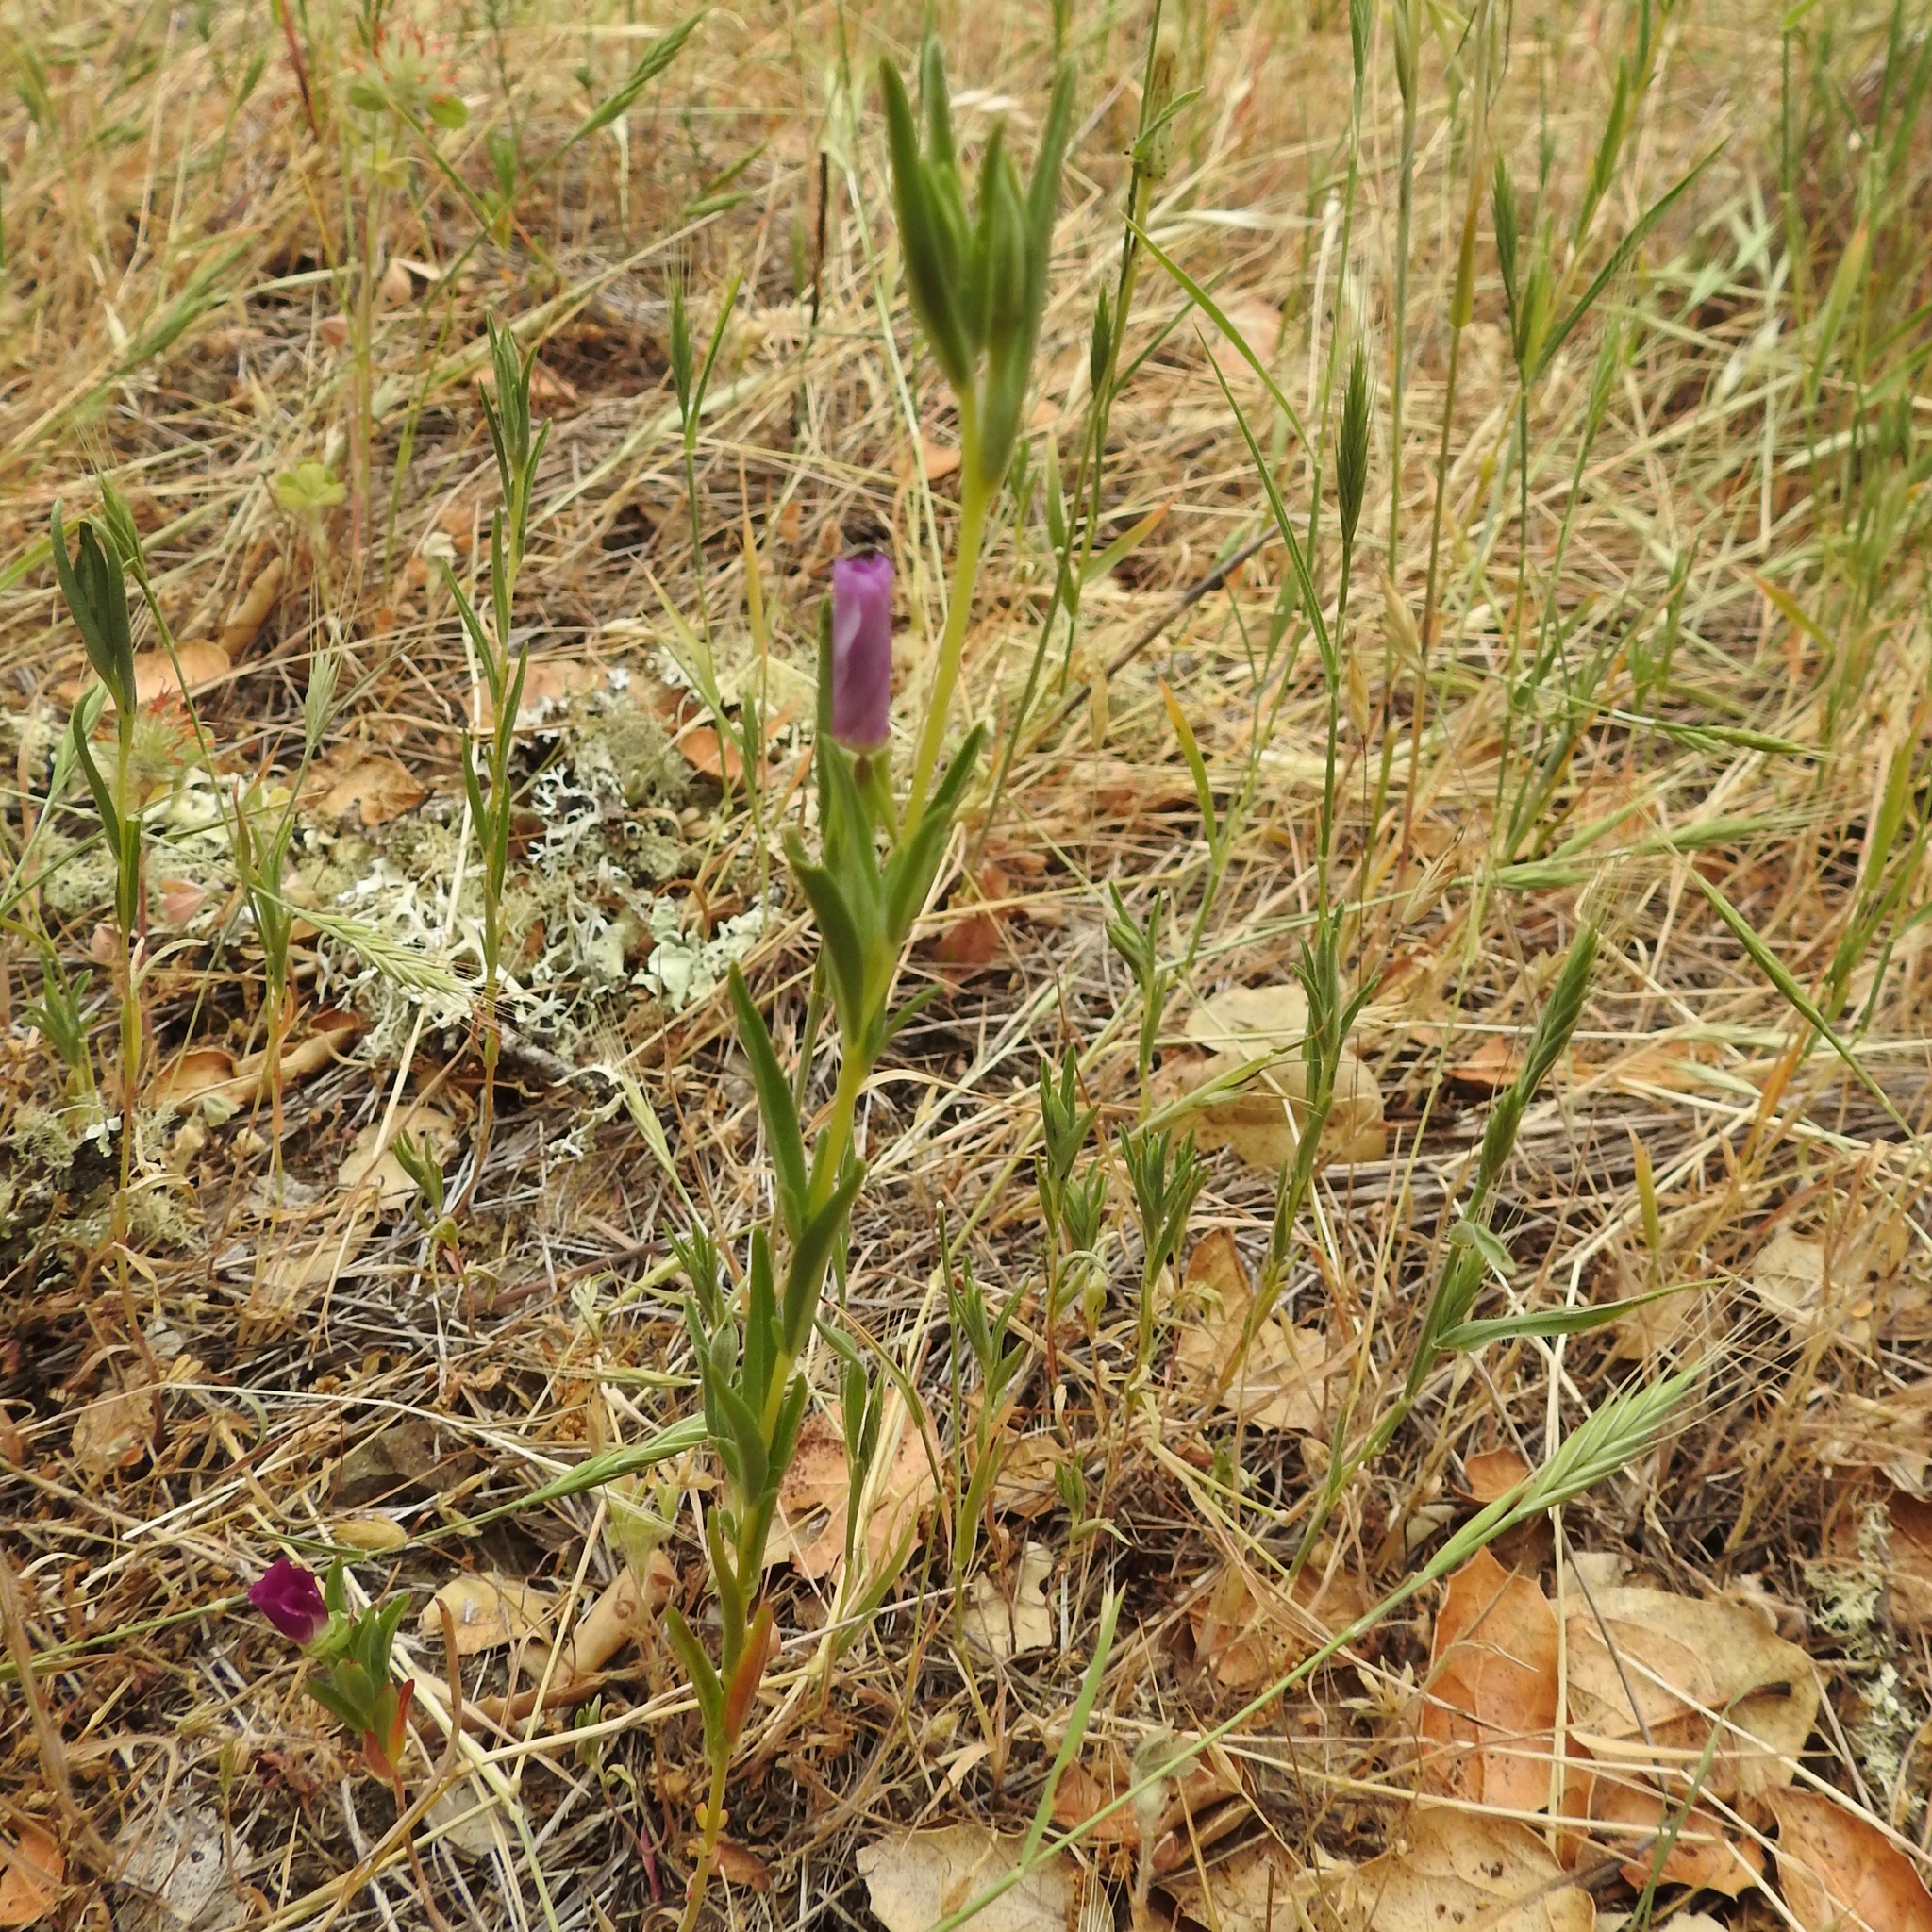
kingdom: Plantae
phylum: Tracheophyta
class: Magnoliopsida
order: Myrtales
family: Onagraceae
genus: Clarkia
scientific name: Clarkia purpurea
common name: Purple clarkia
